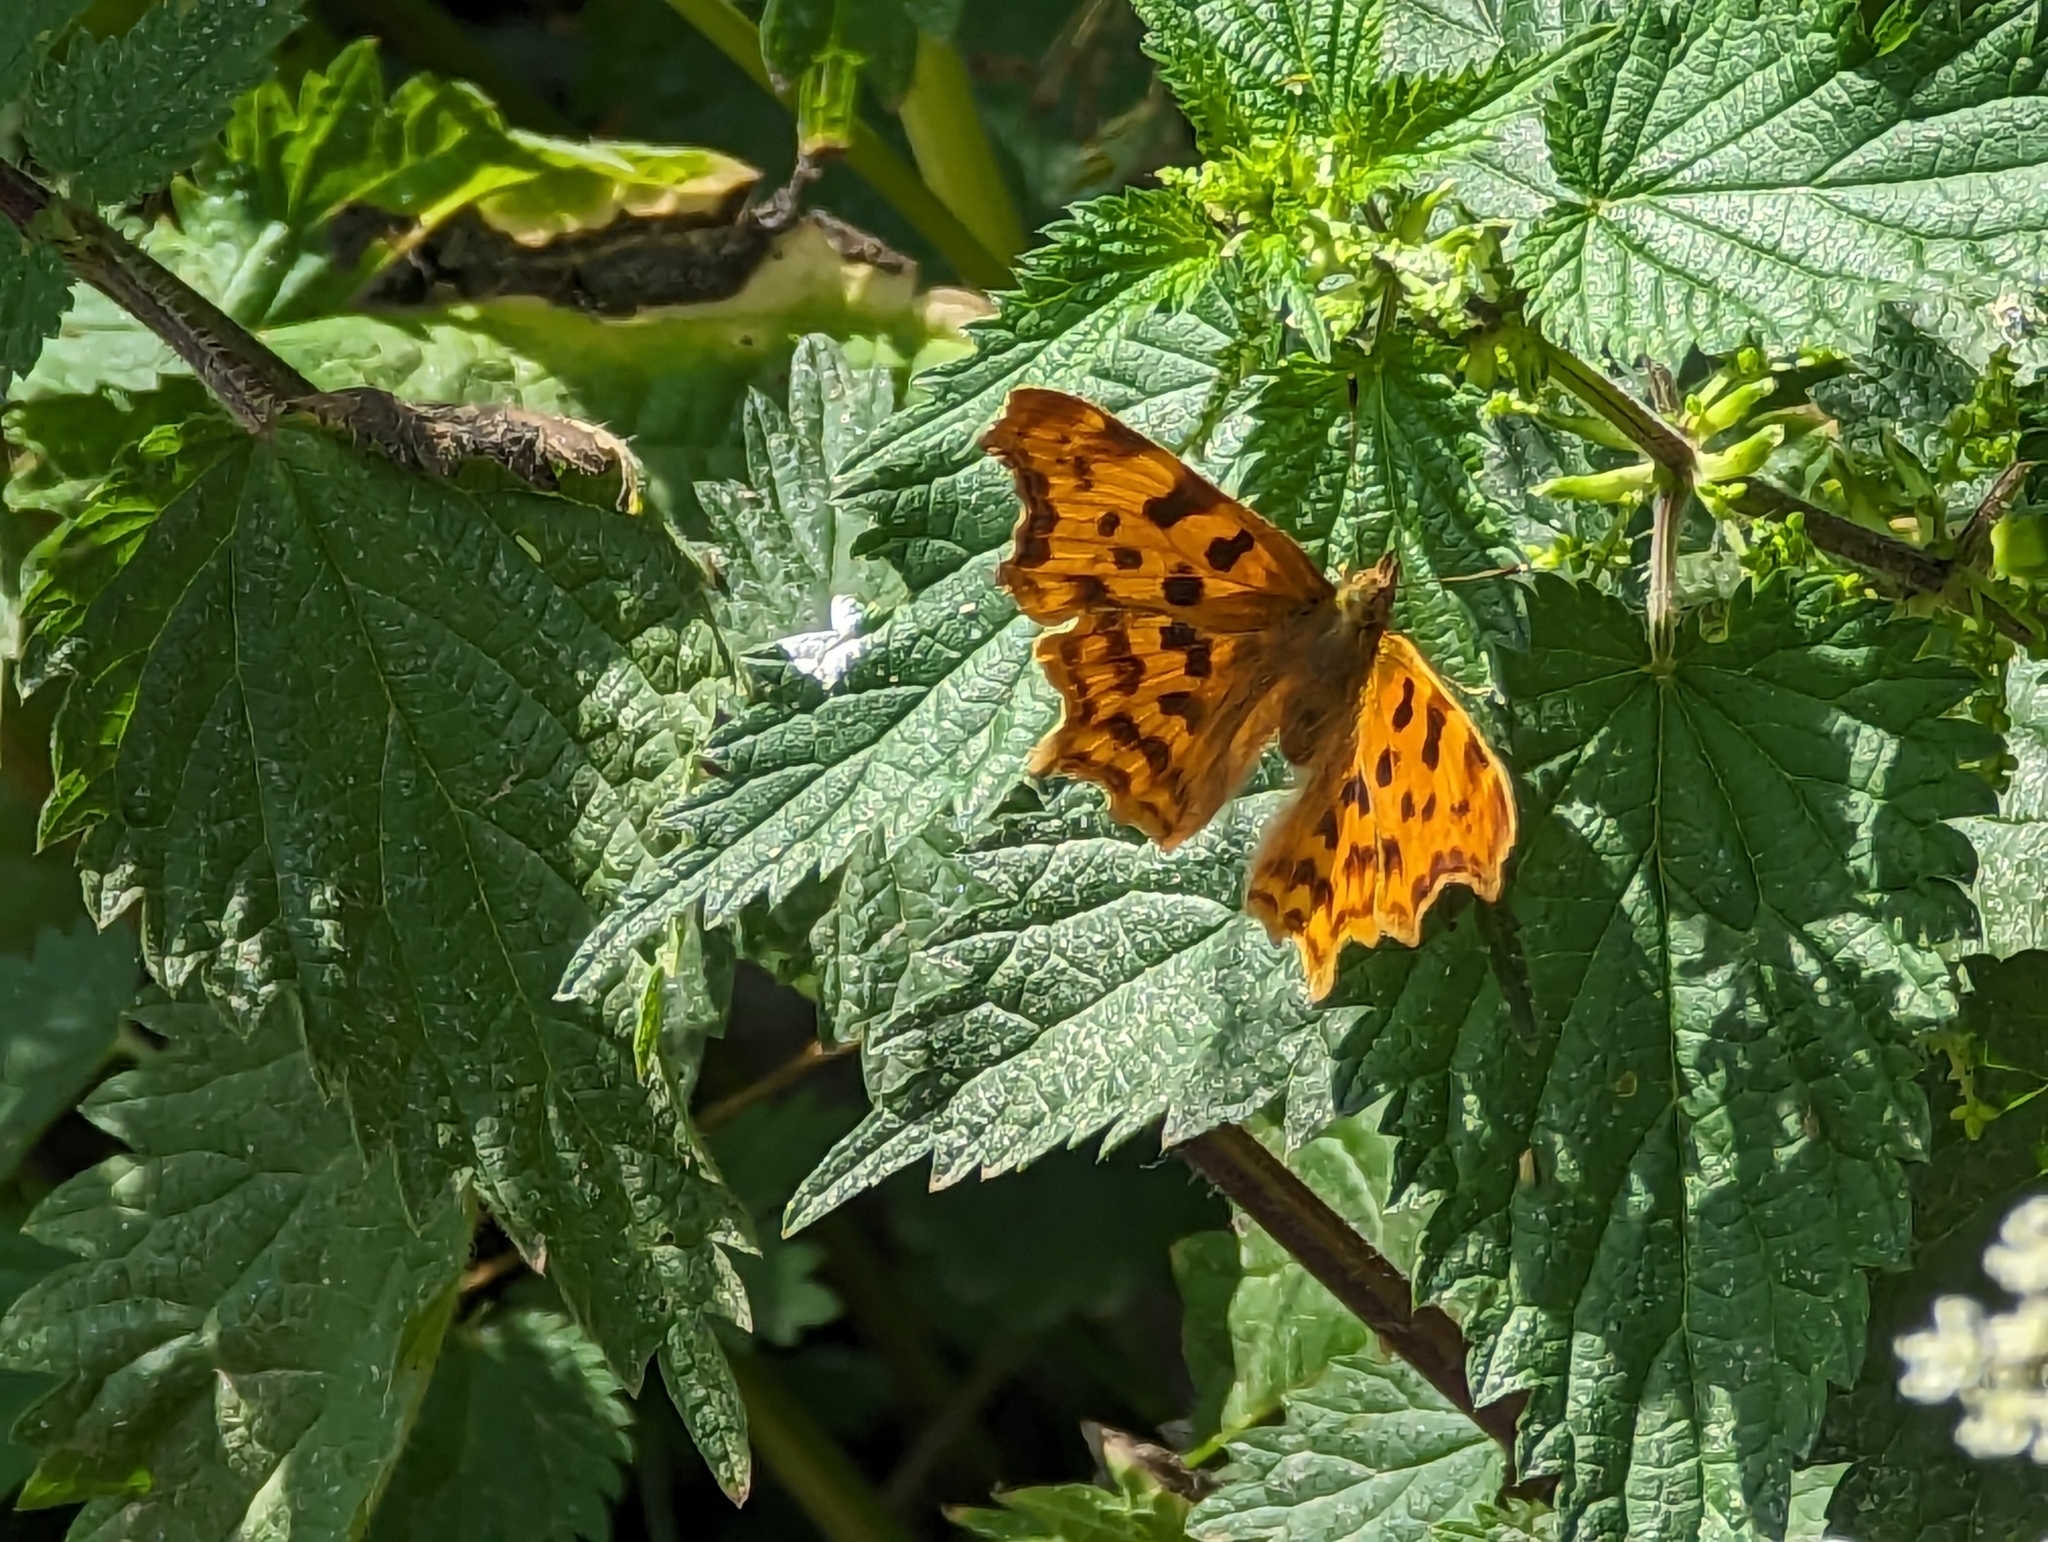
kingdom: Animalia
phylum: Arthropoda
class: Insecta
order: Lepidoptera
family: Nymphalidae
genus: Polygonia
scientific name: Polygonia c-album
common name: Comma
